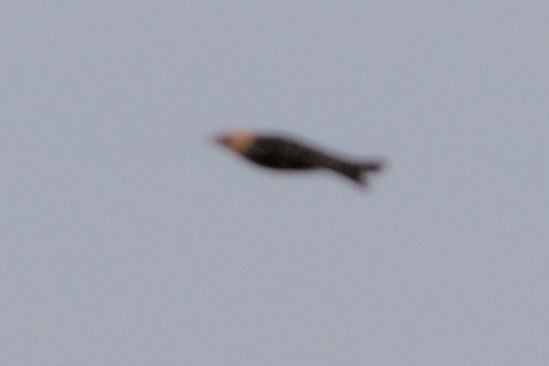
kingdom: Animalia
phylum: Chordata
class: Aves
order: Passeriformes
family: Icteridae
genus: Xanthocephalus
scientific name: Xanthocephalus xanthocephalus
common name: Yellow-headed blackbird
